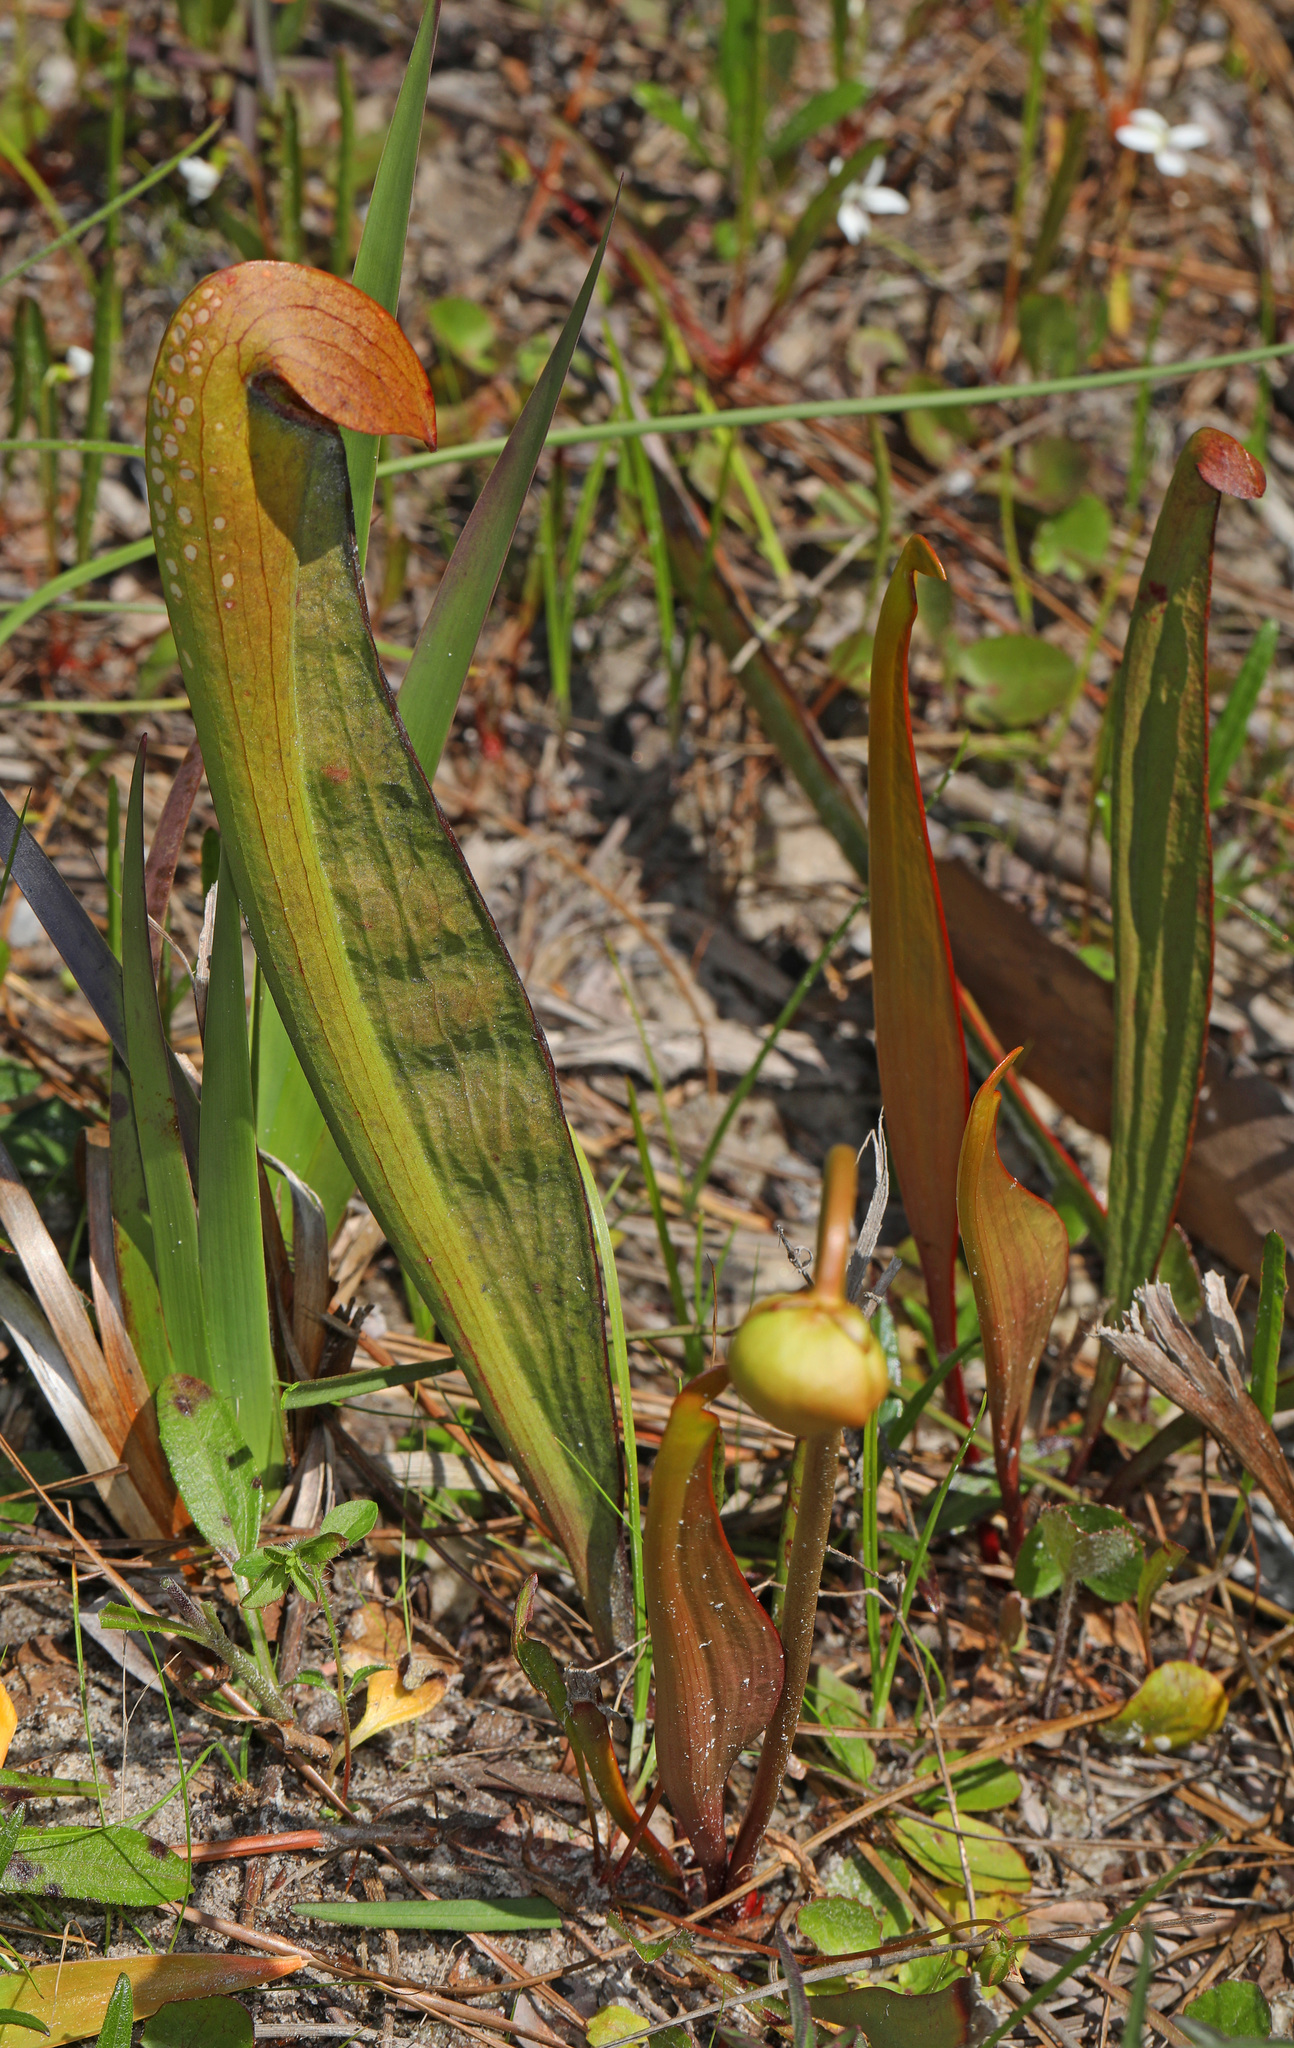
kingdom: Plantae
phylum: Tracheophyta
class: Magnoliopsida
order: Ericales
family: Sarraceniaceae
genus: Sarracenia
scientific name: Sarracenia minor
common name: Rainhat-trumpet
